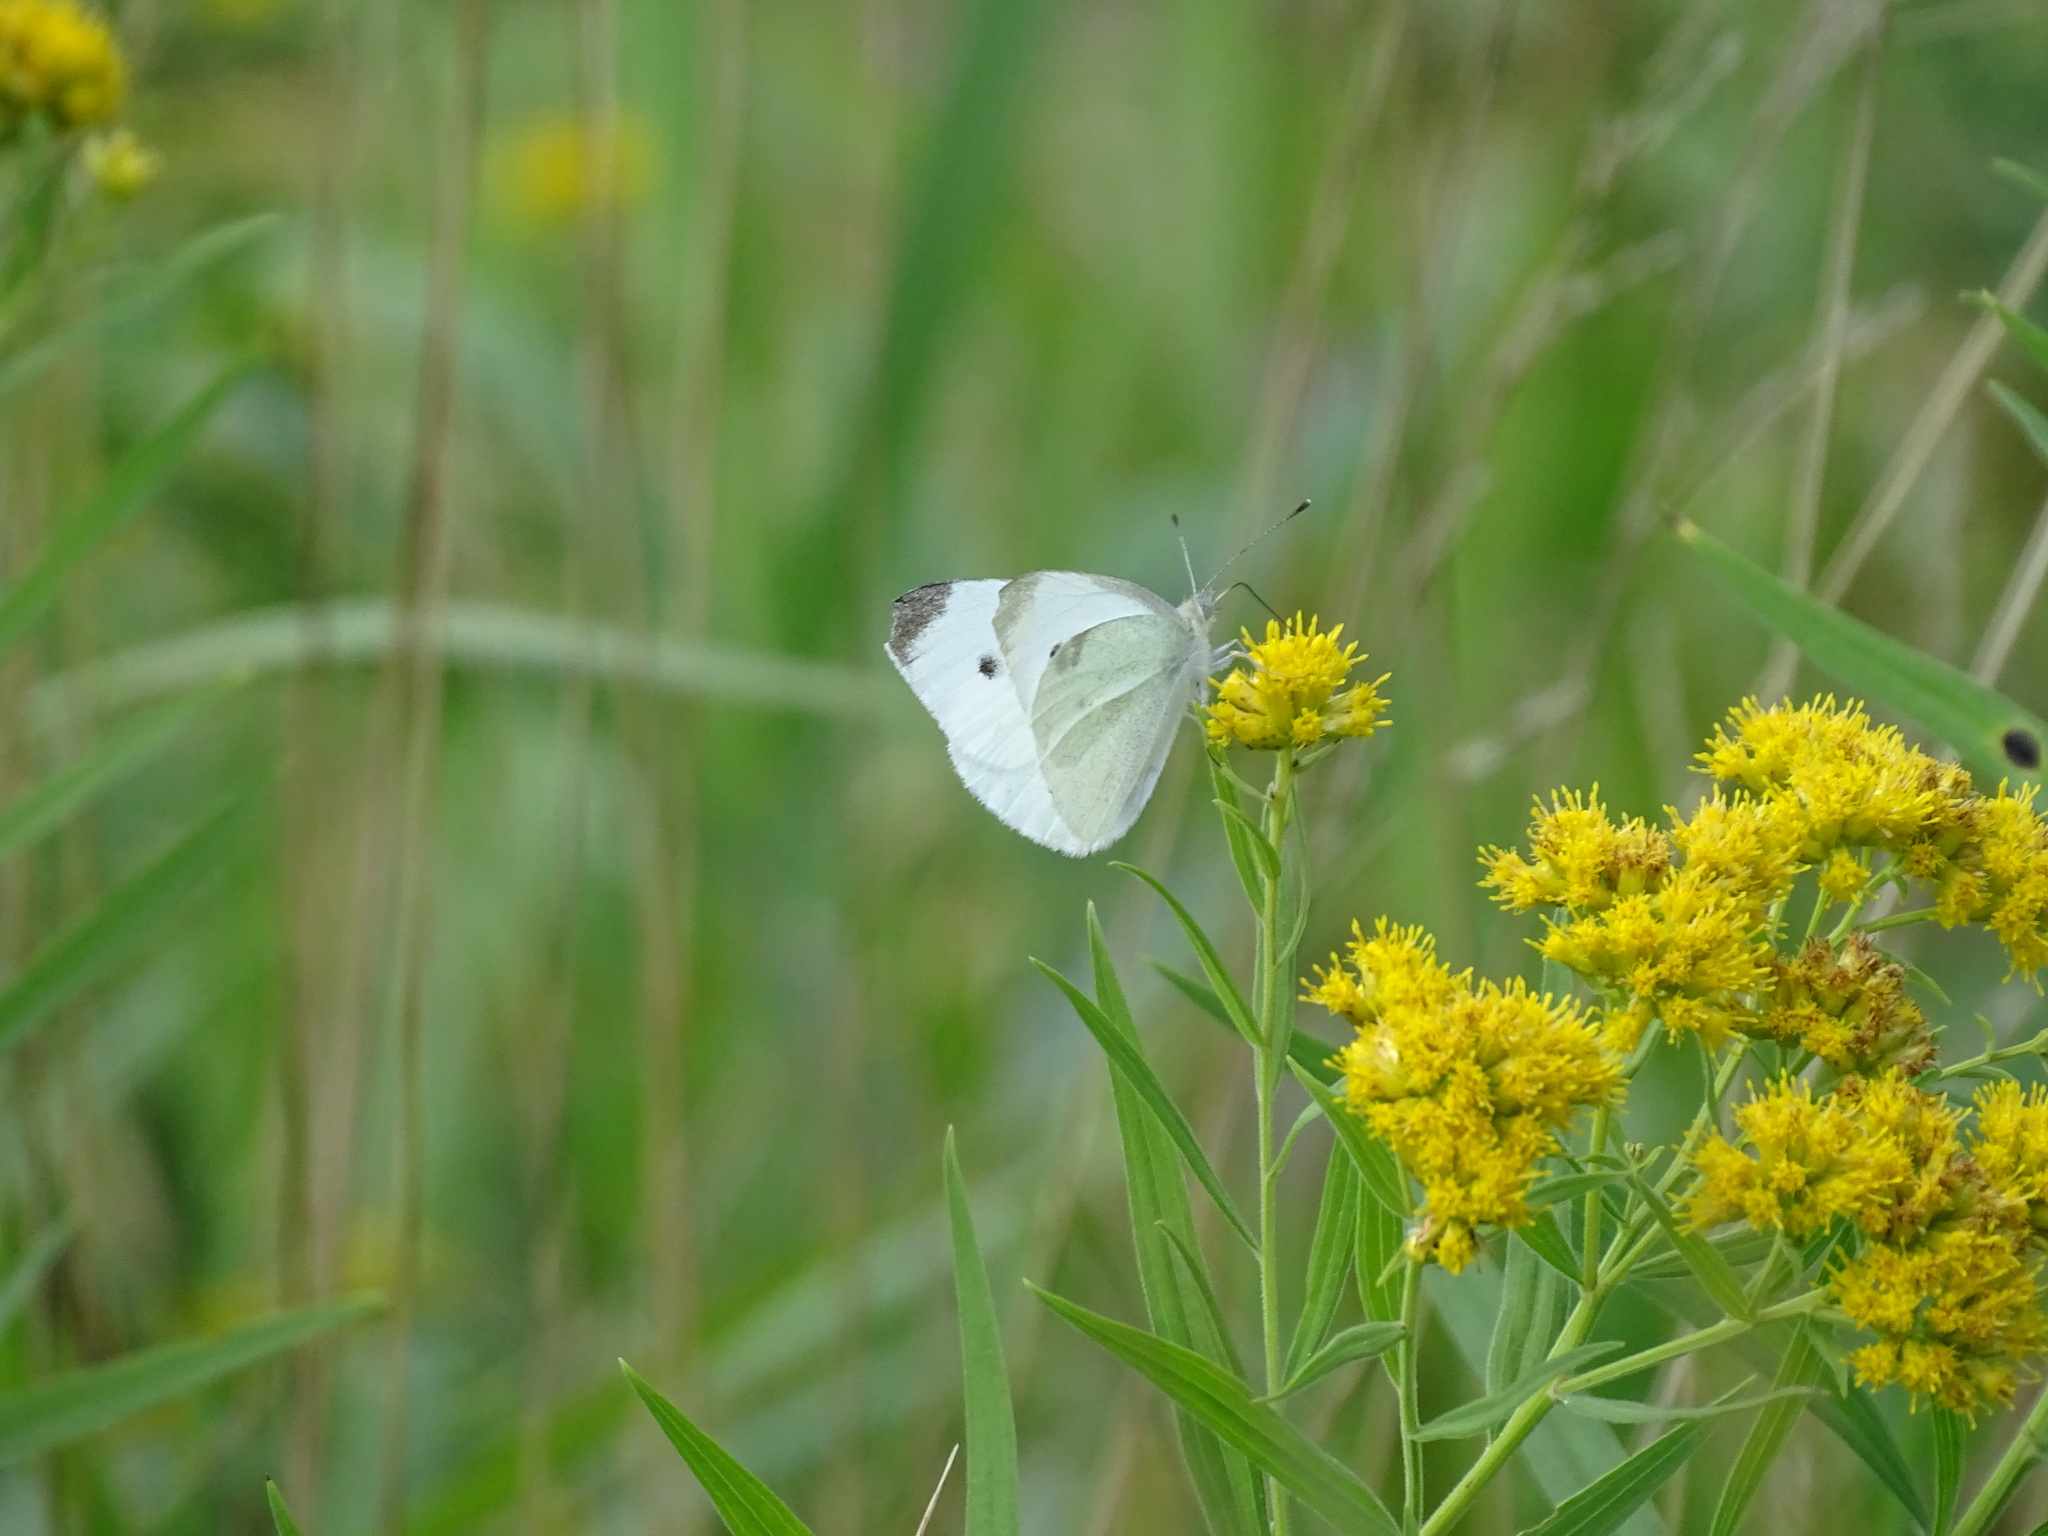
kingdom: Animalia
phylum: Arthropoda
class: Insecta
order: Lepidoptera
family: Pieridae
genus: Pieris
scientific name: Pieris rapae
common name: Small white
